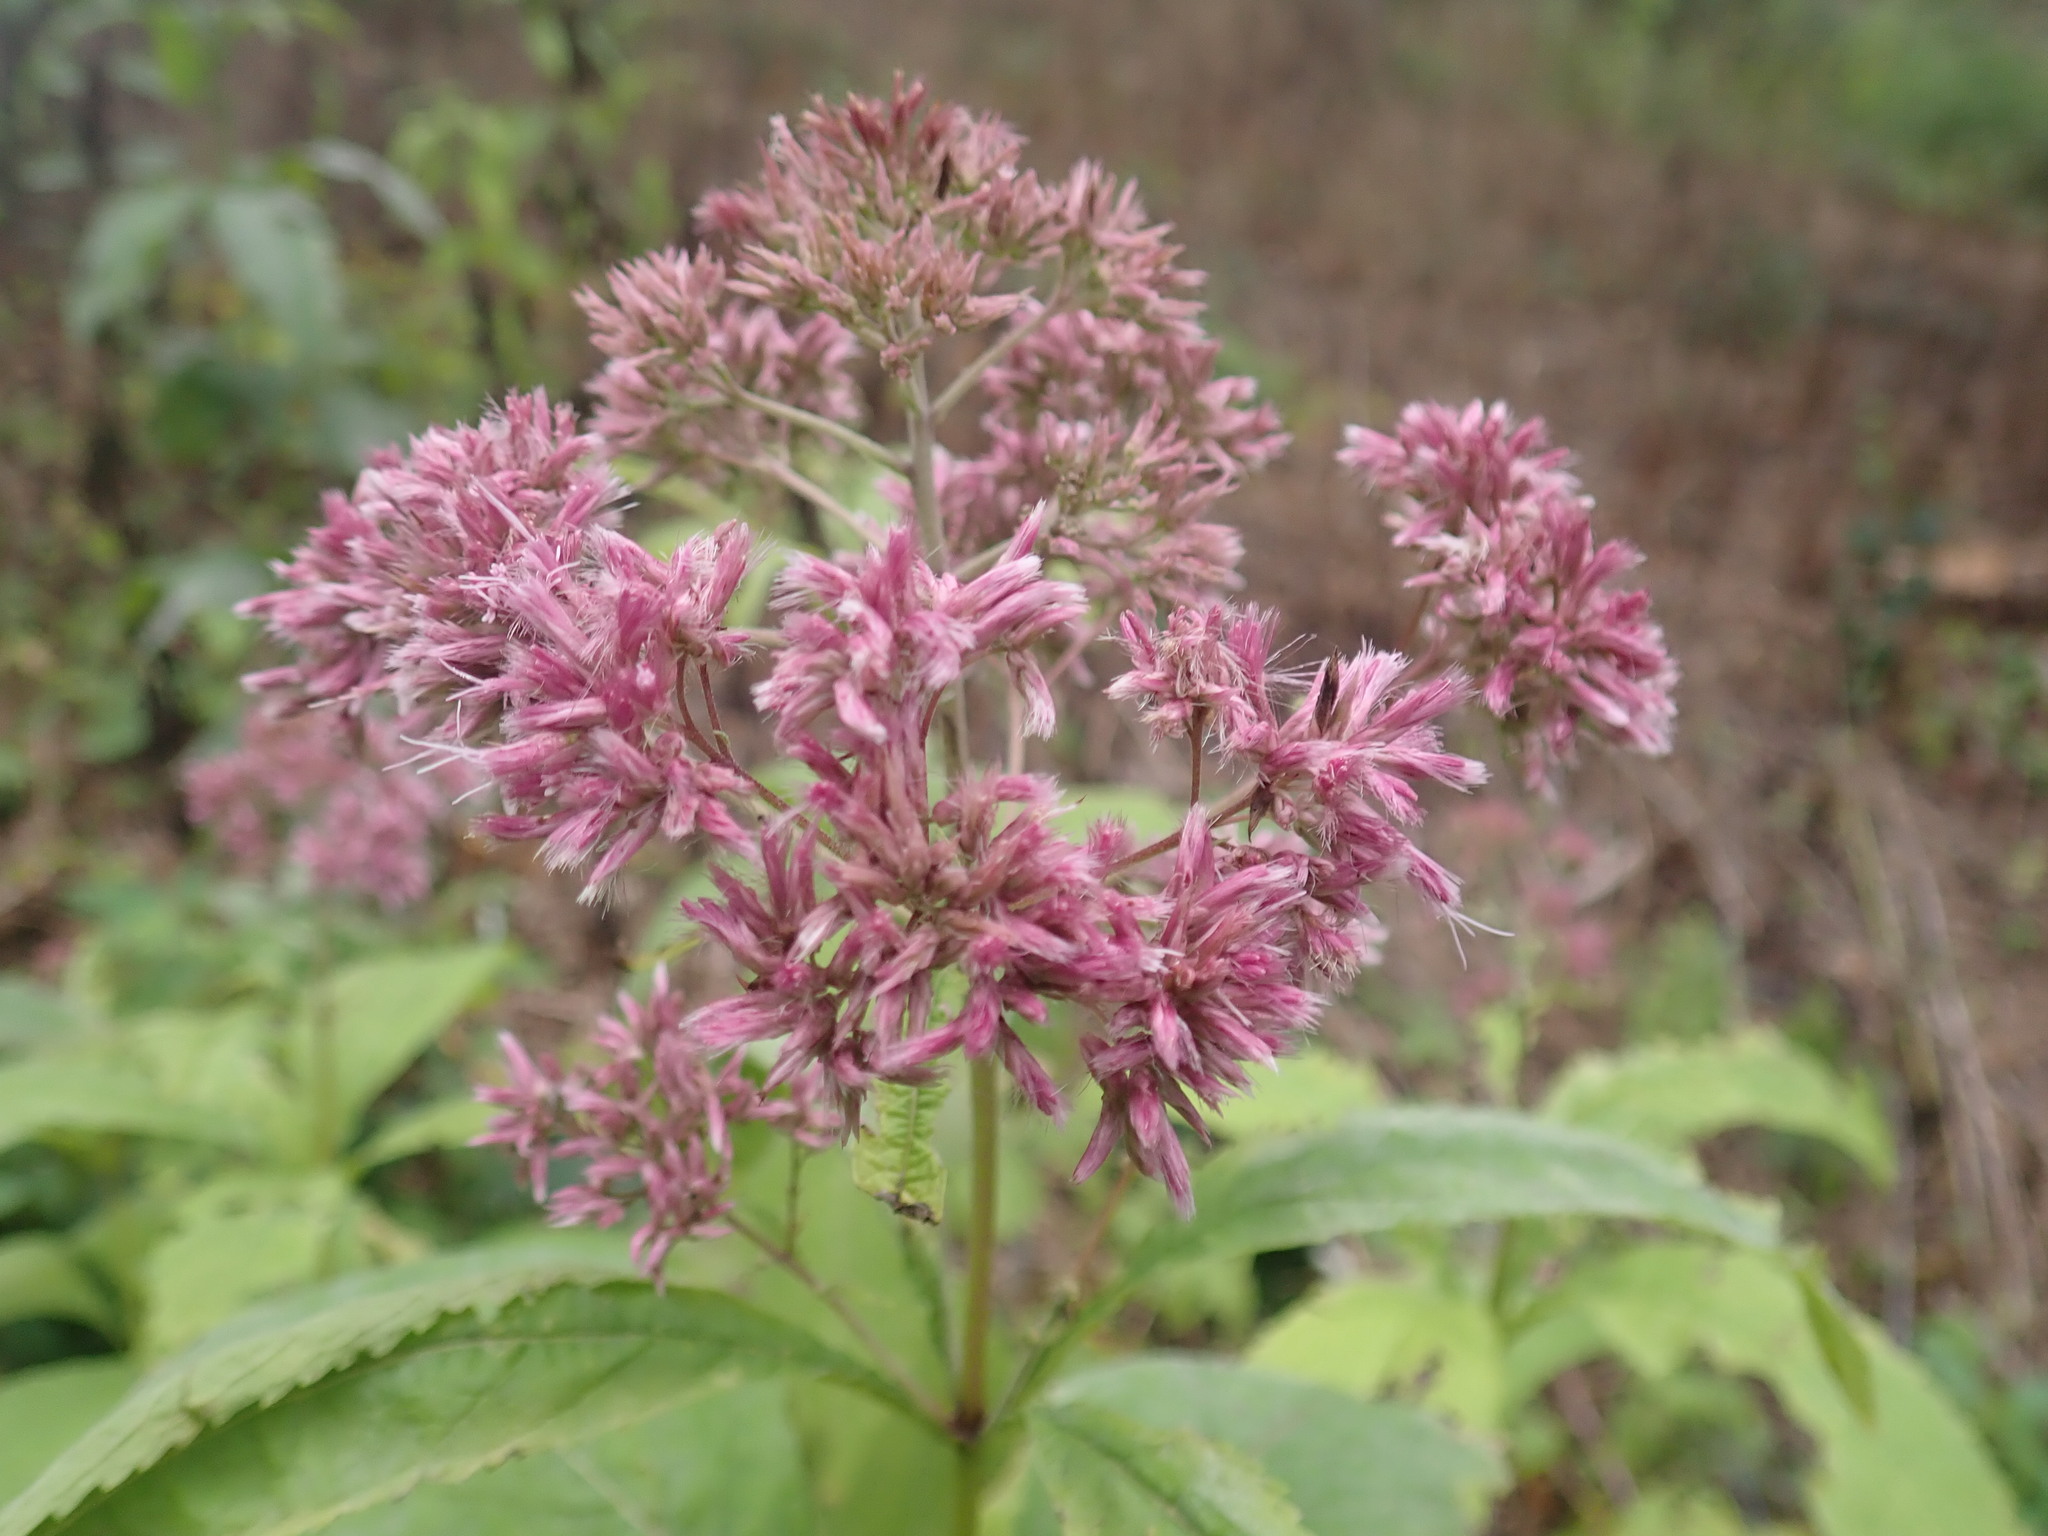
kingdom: Plantae
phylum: Tracheophyta
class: Magnoliopsida
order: Asterales
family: Asteraceae
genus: Eutrochium
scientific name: Eutrochium purpureum
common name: Gravelroot
